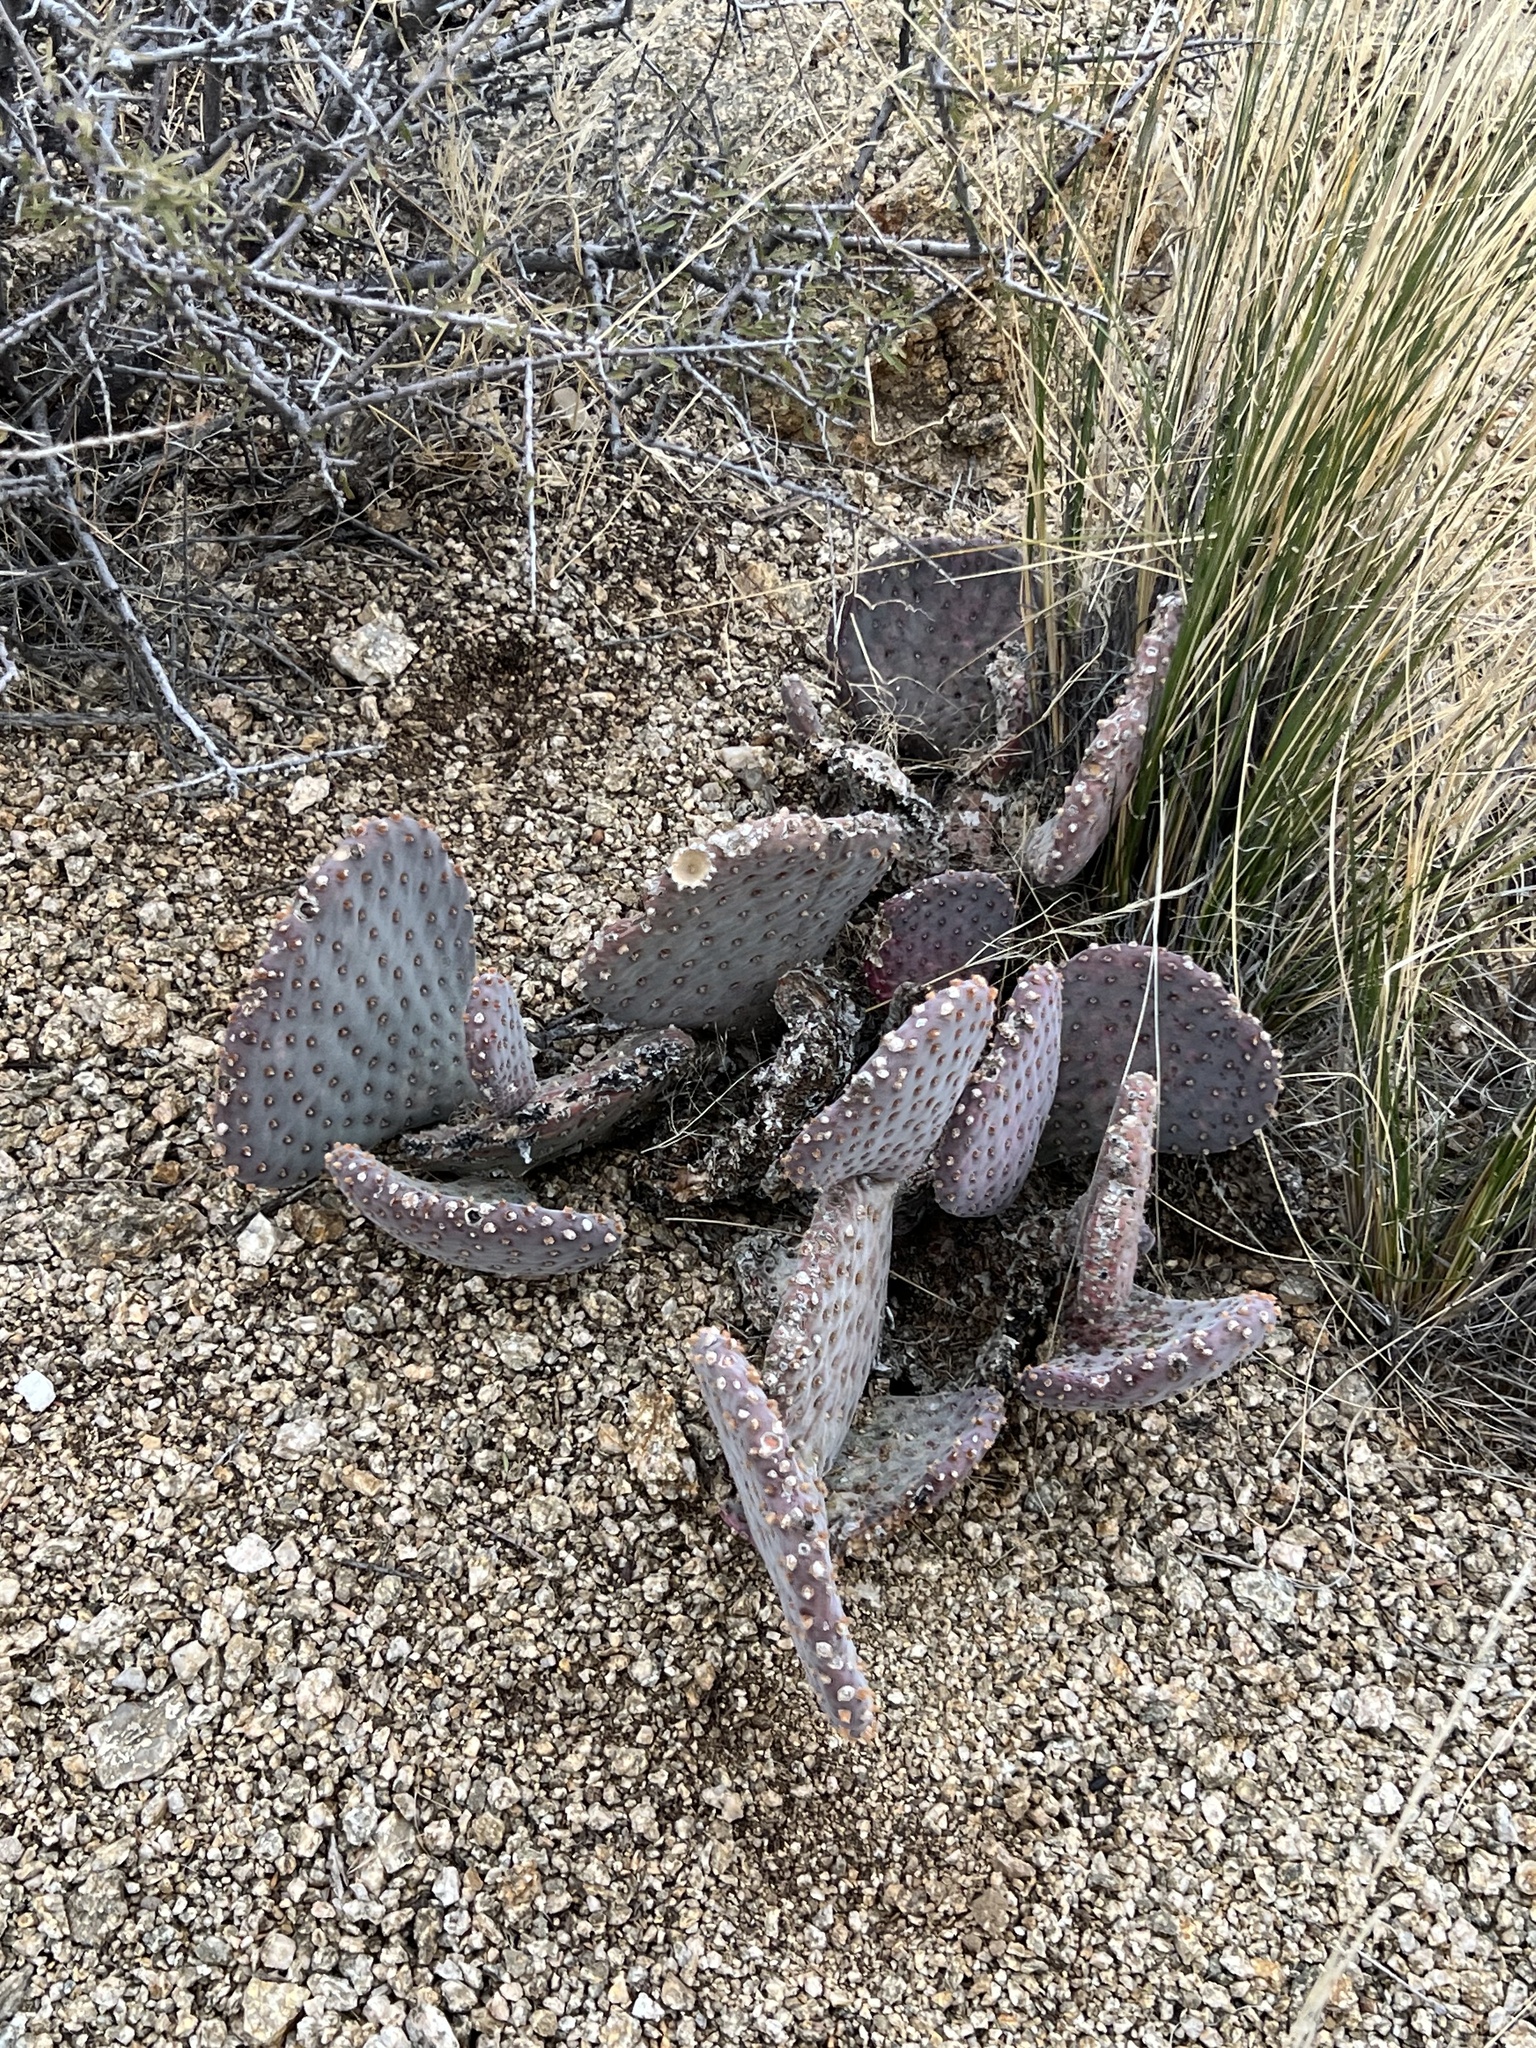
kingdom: Plantae
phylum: Tracheophyta
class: Magnoliopsida
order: Caryophyllales
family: Cactaceae
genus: Opuntia
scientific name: Opuntia basilaris
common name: Beavertail prickly-pear
